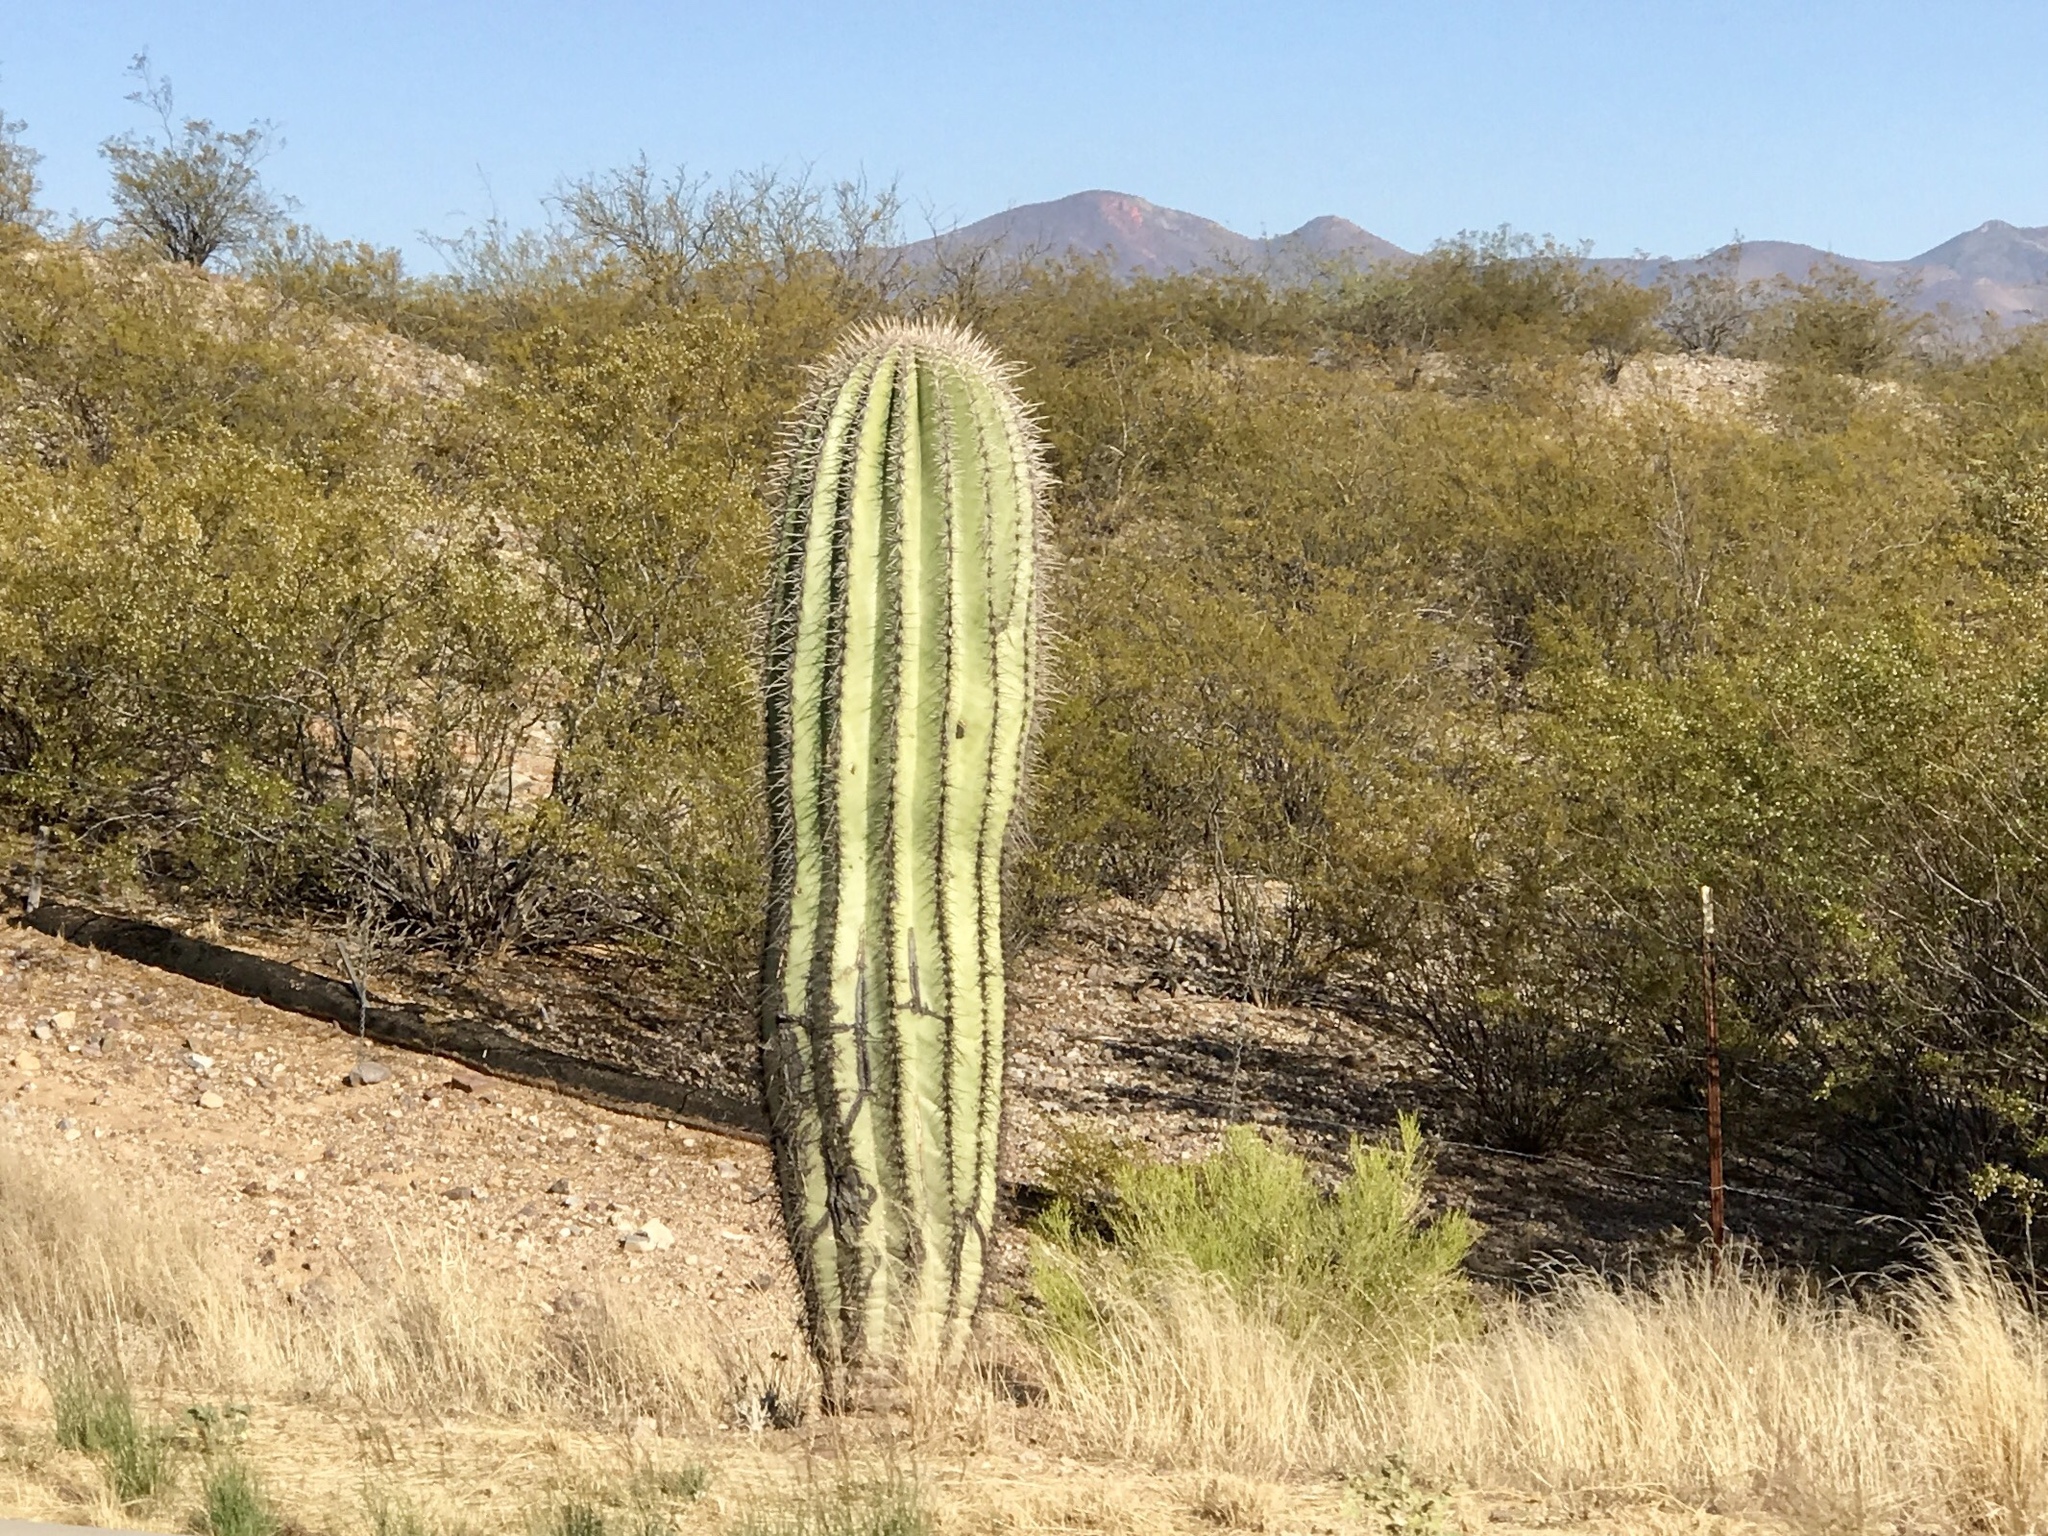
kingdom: Plantae
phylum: Tracheophyta
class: Magnoliopsida
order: Caryophyllales
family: Cactaceae
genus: Carnegiea
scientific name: Carnegiea gigantea
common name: Saguaro
